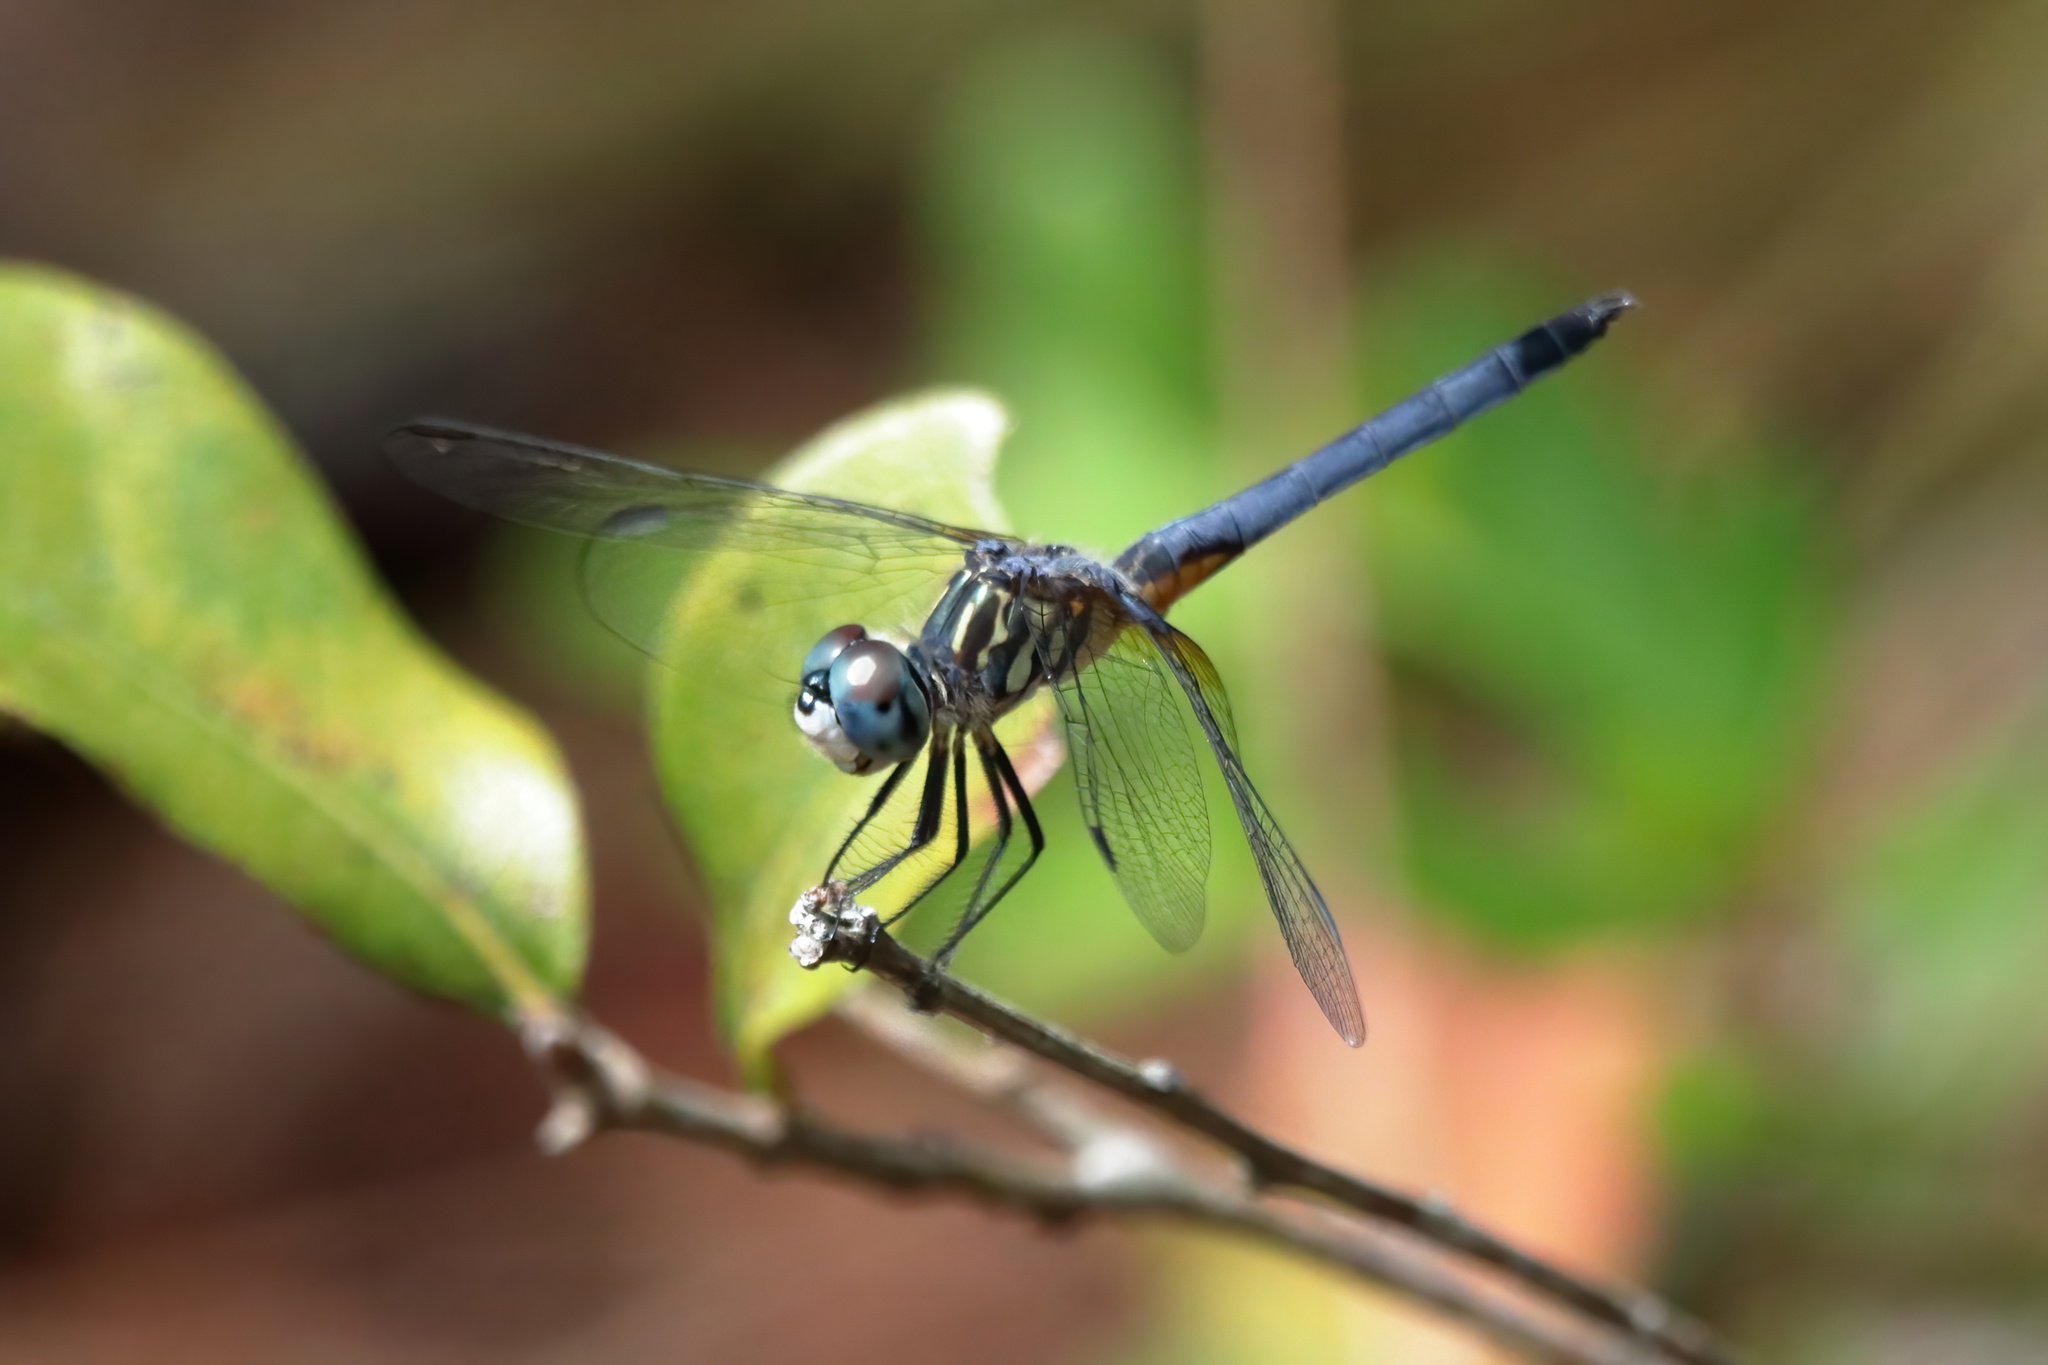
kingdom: Animalia
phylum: Arthropoda
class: Insecta
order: Odonata
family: Libellulidae
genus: Pachydiplax
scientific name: Pachydiplax longipennis
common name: Blue dasher
